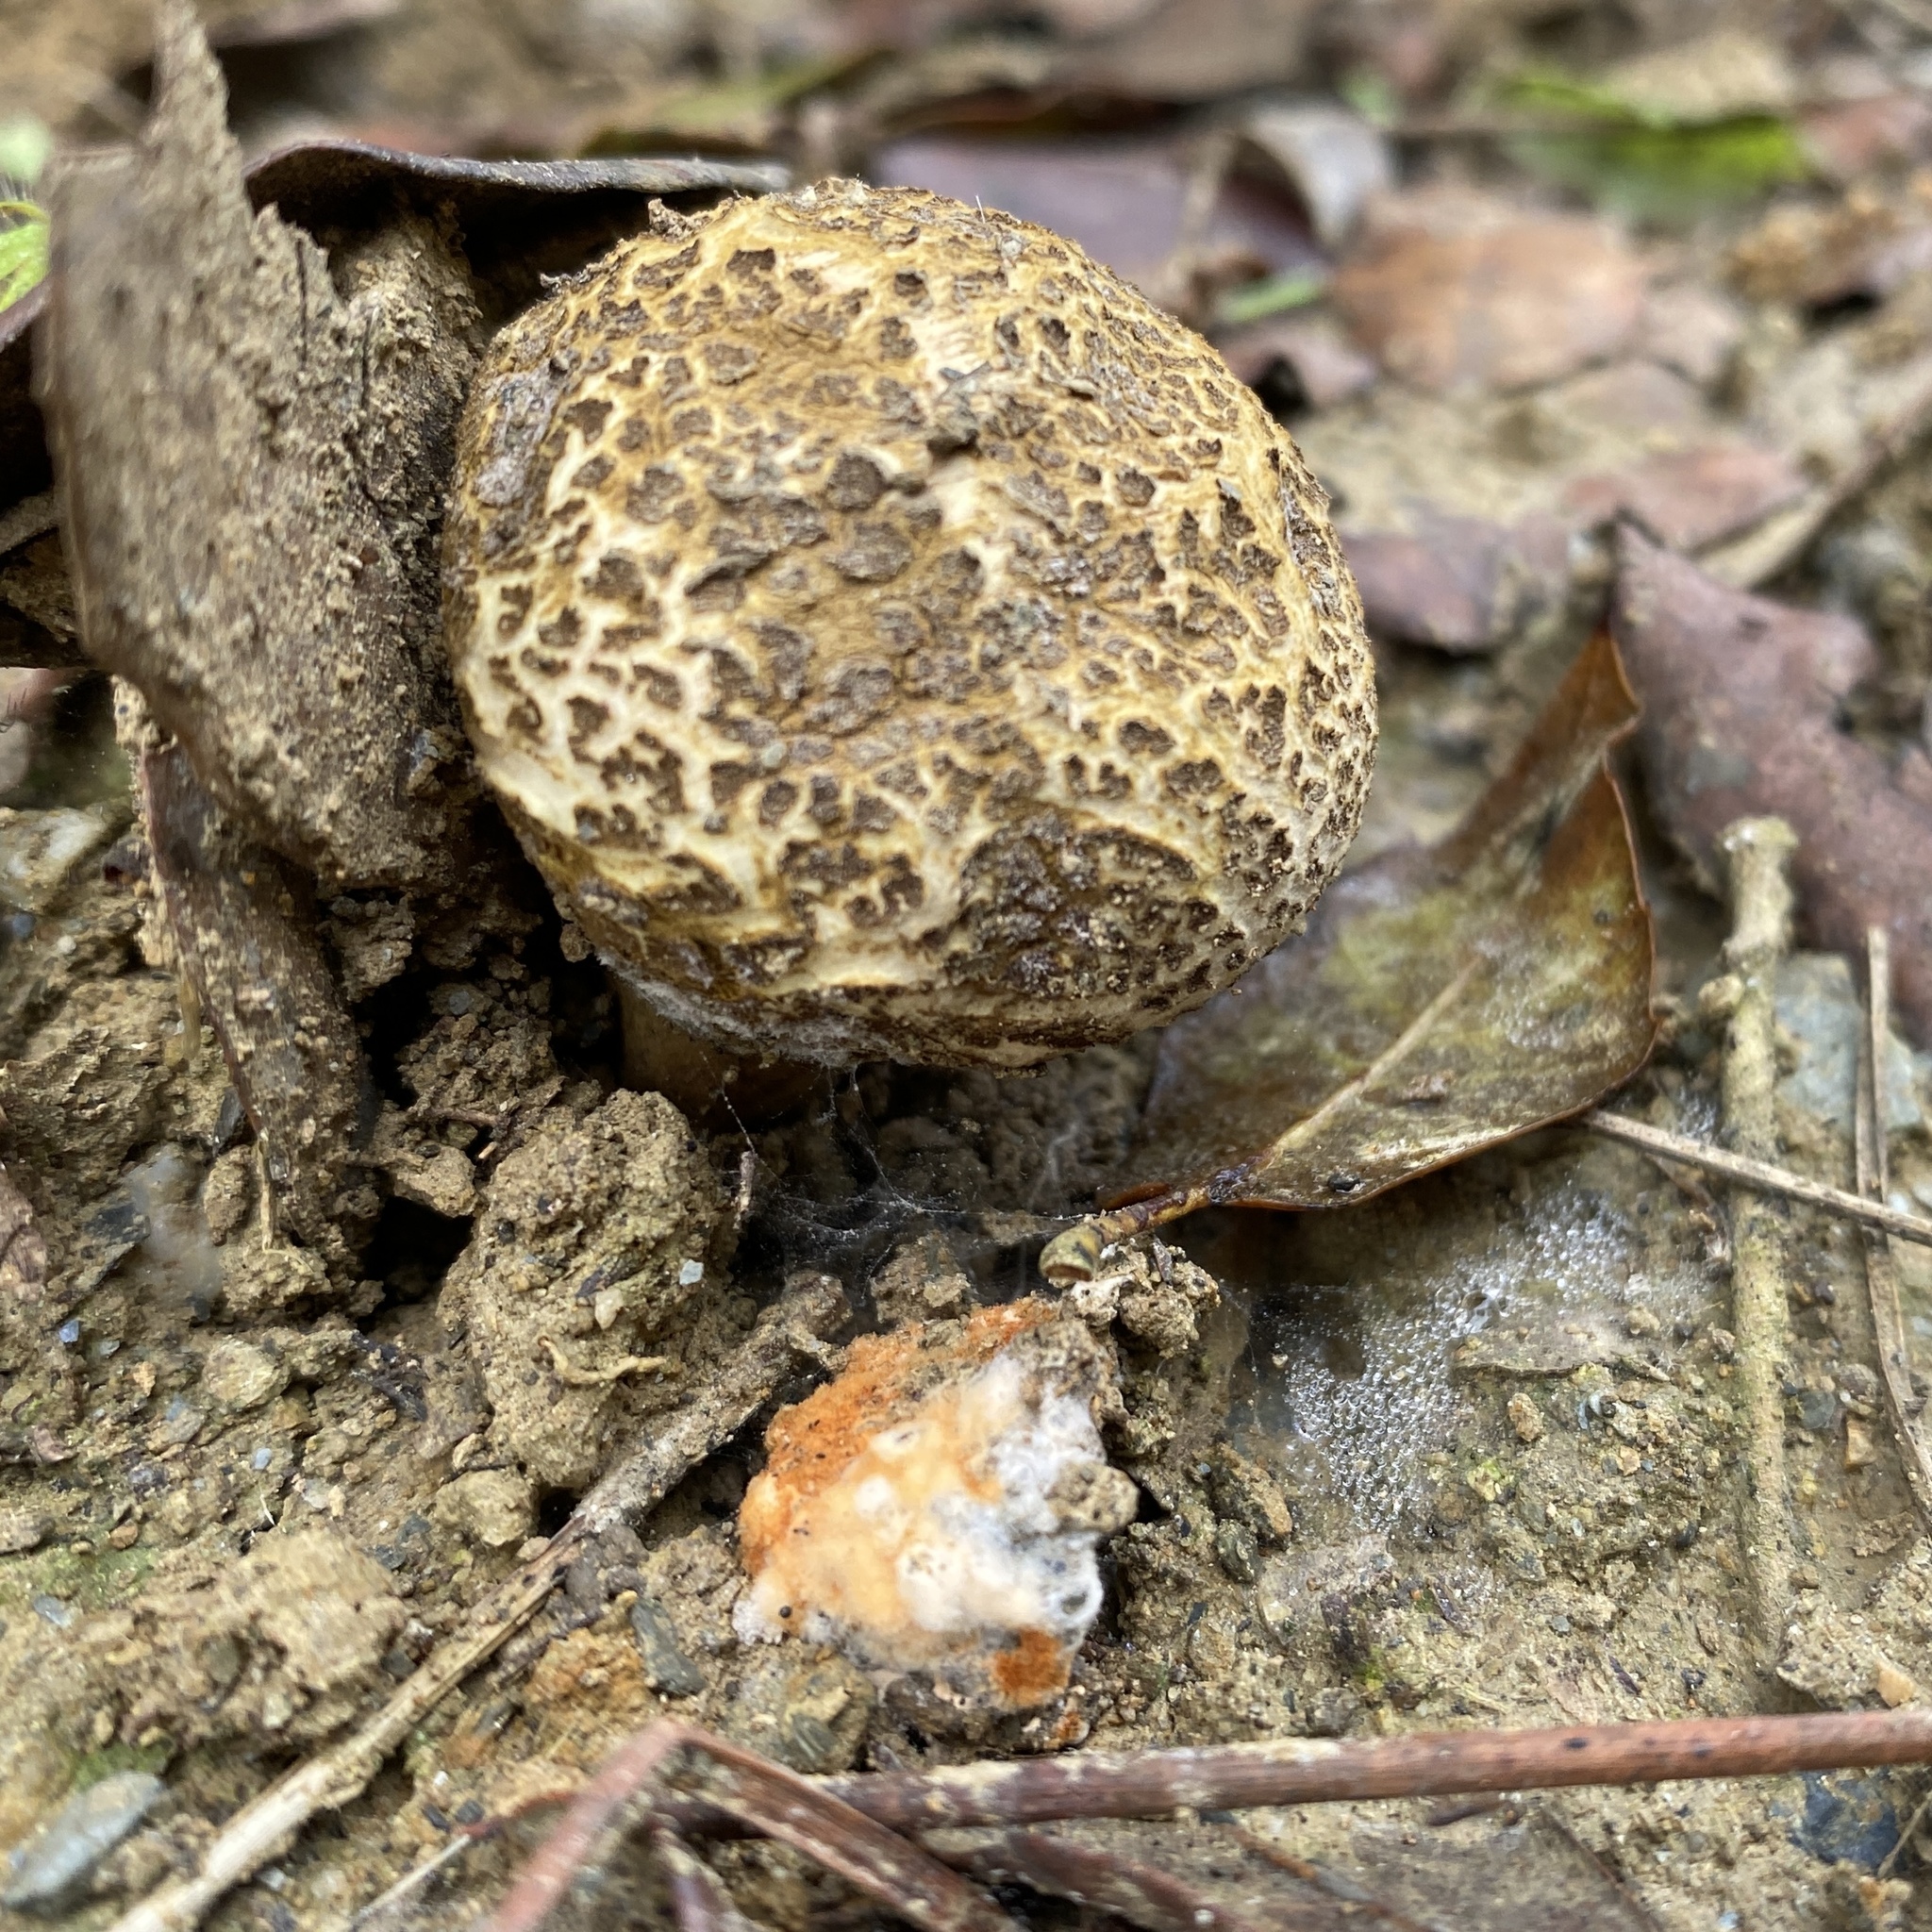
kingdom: Fungi
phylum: Basidiomycota
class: Agaricomycetes
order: Boletales
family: Sclerodermataceae
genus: Scleroderma
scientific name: Scleroderma citrinum
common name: Common earthball
